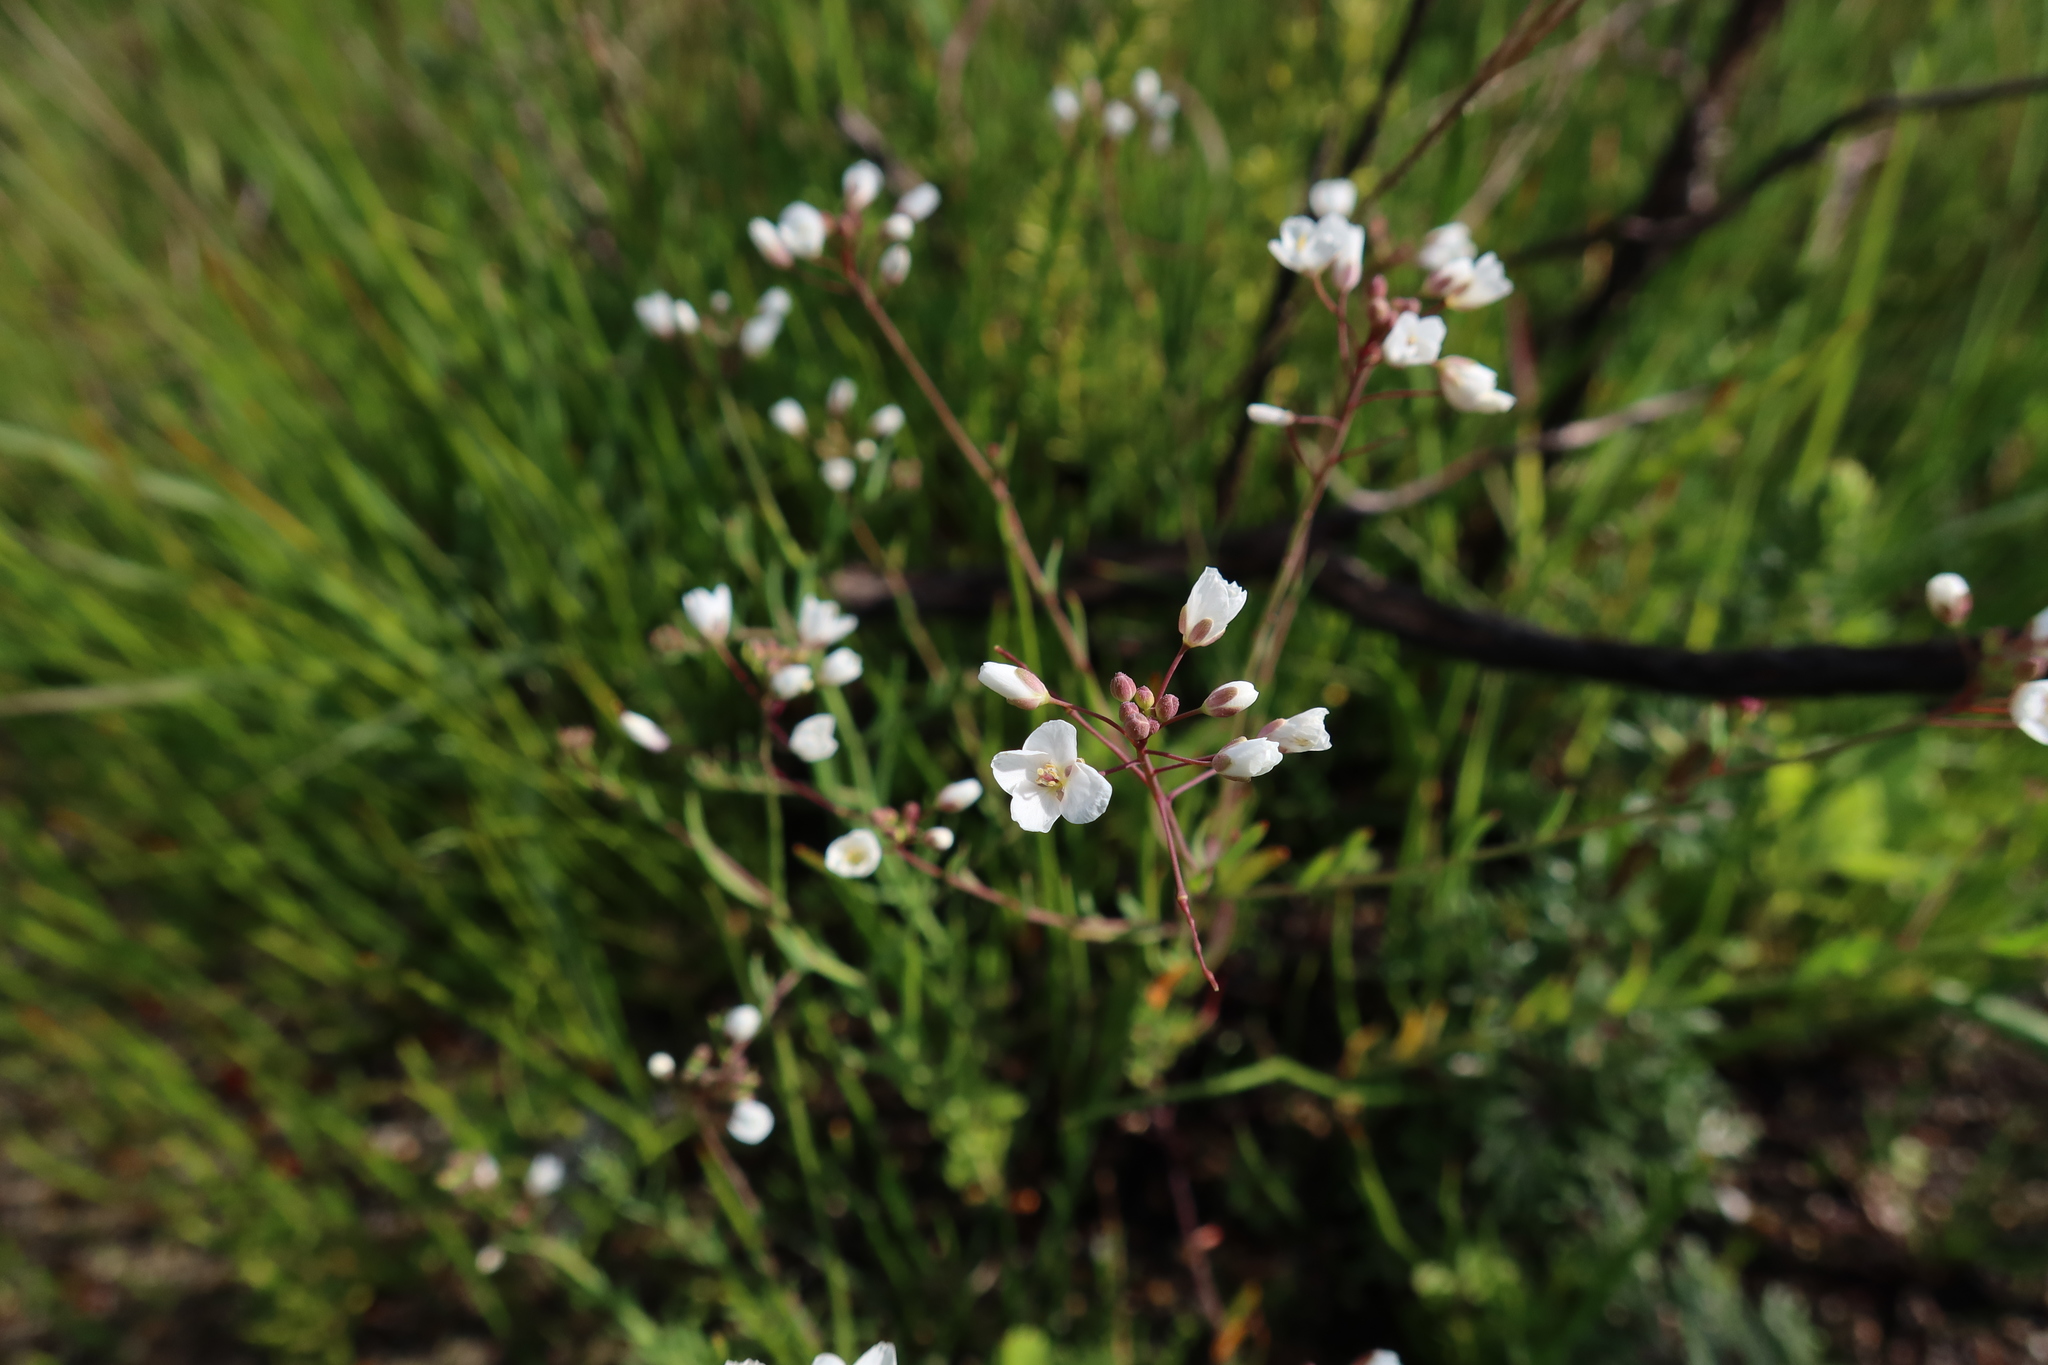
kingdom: Plantae
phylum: Tracheophyta
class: Magnoliopsida
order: Brassicales
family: Brassicaceae
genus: Heliophila
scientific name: Heliophila pusilla
